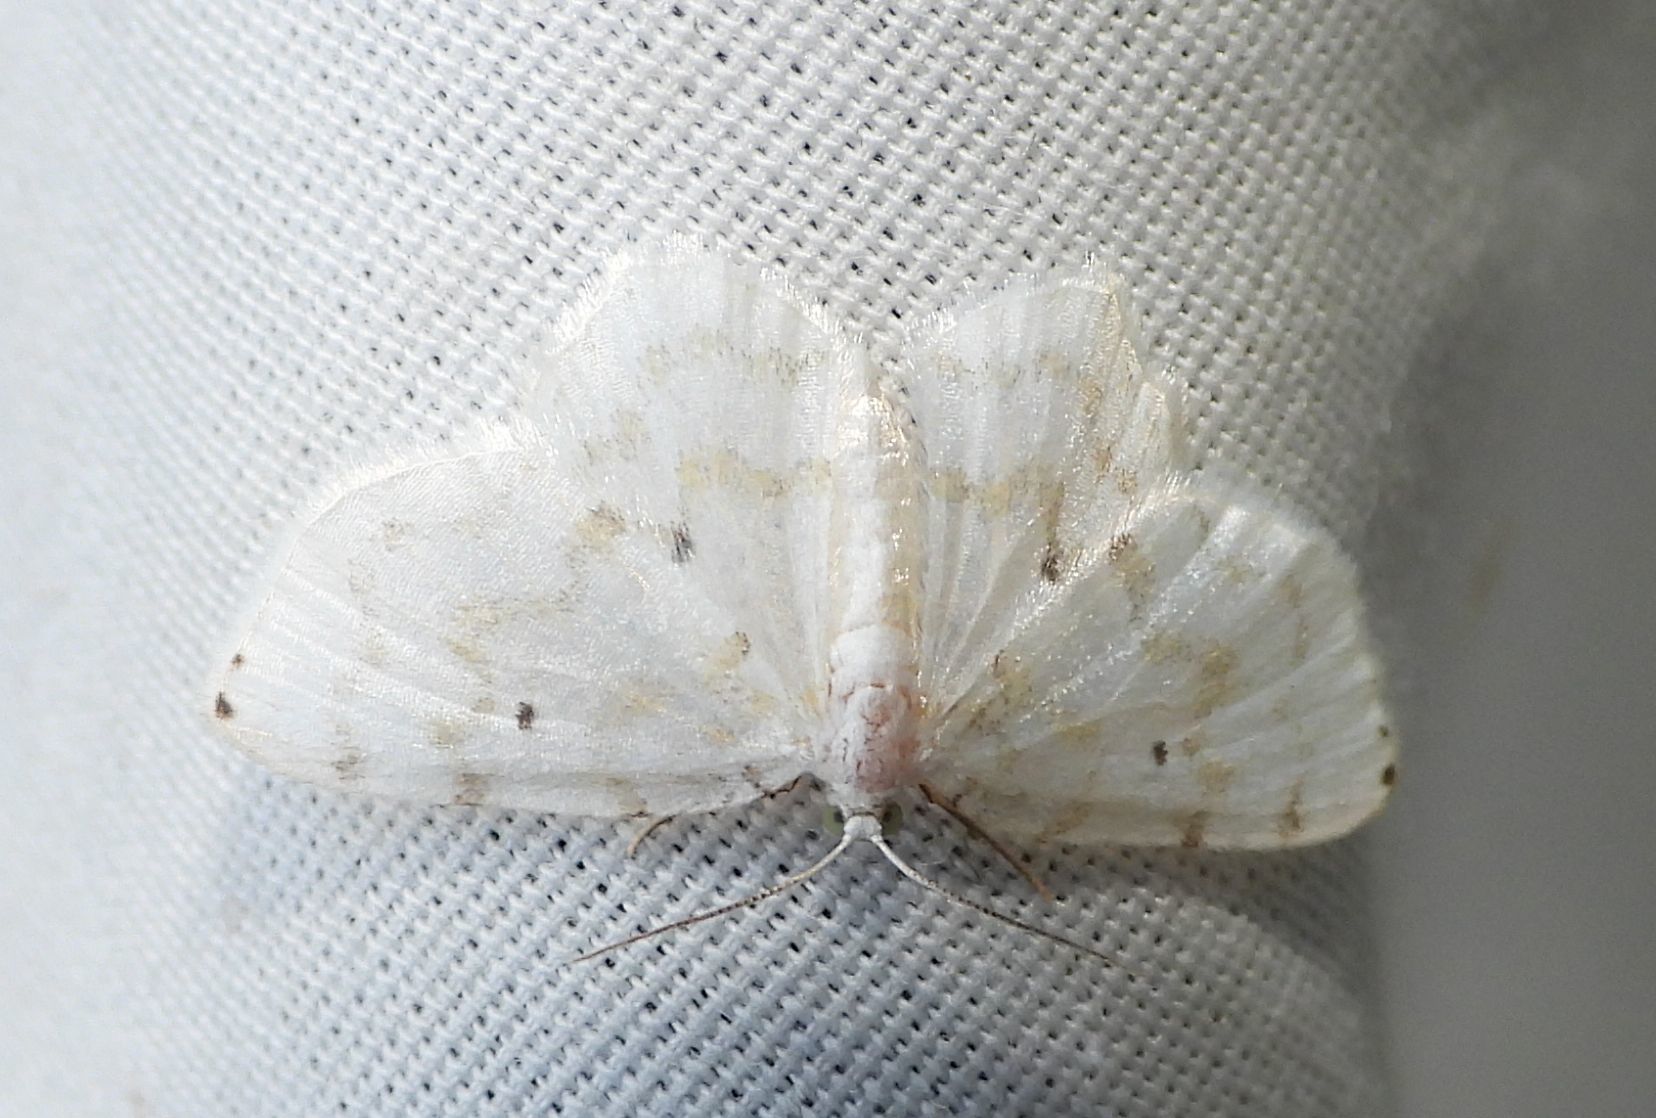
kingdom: Animalia
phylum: Arthropoda
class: Insecta
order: Lepidoptera
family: Geometridae
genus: Hydrelia
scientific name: Hydrelia albifera
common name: Fragile white carpet
